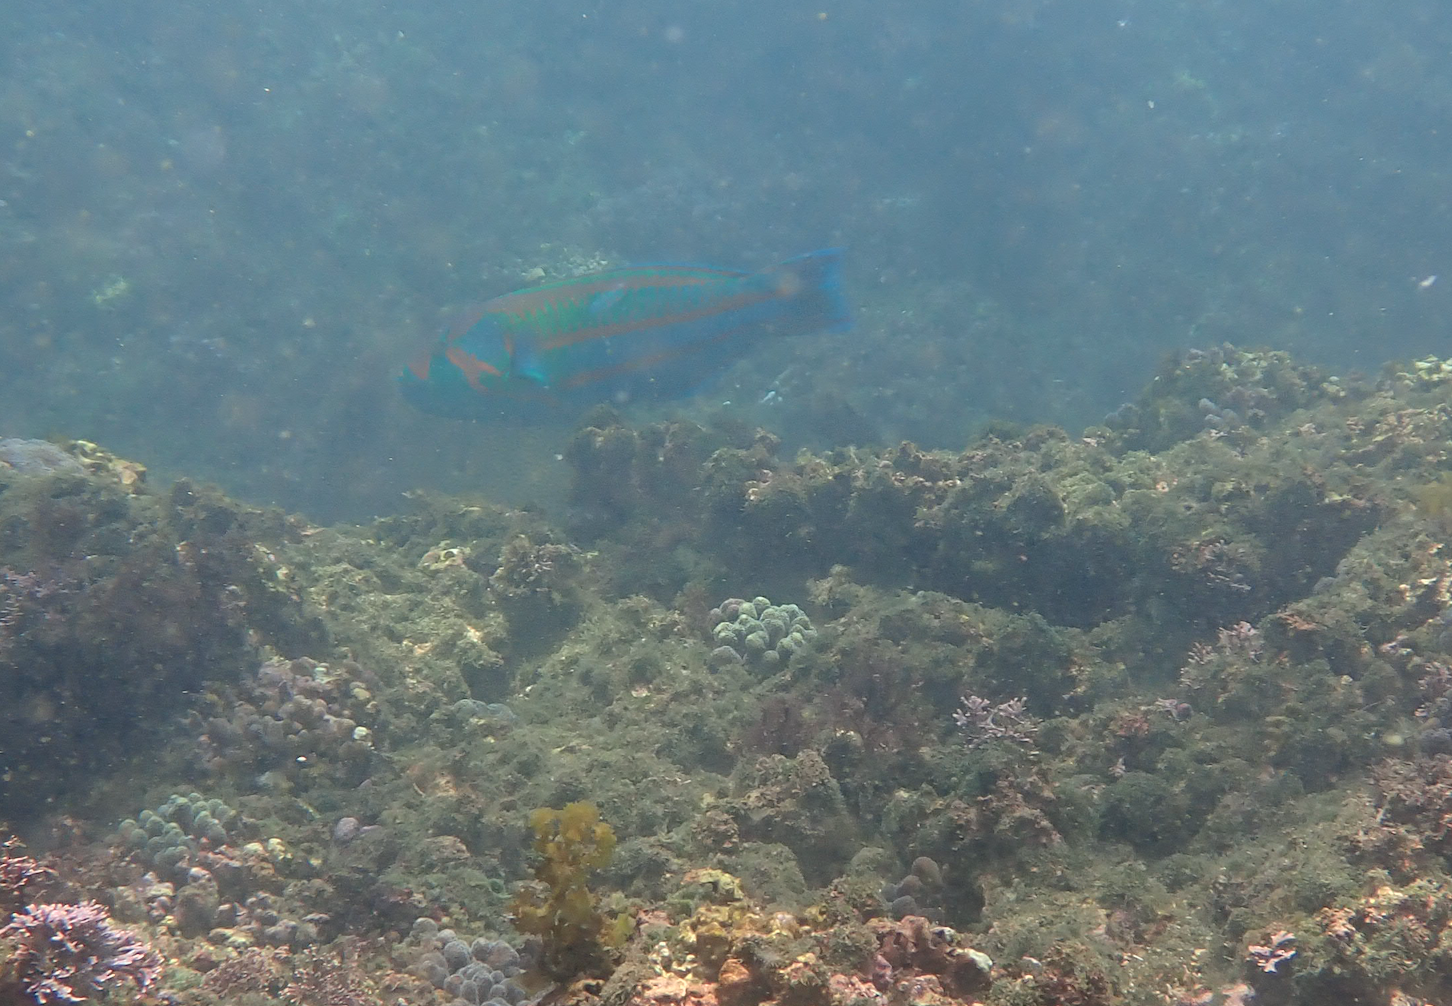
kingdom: Animalia
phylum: Chordata
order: Perciformes
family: Labridae
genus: Thalassoma
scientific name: Thalassoma purpureum
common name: Parrotfish
